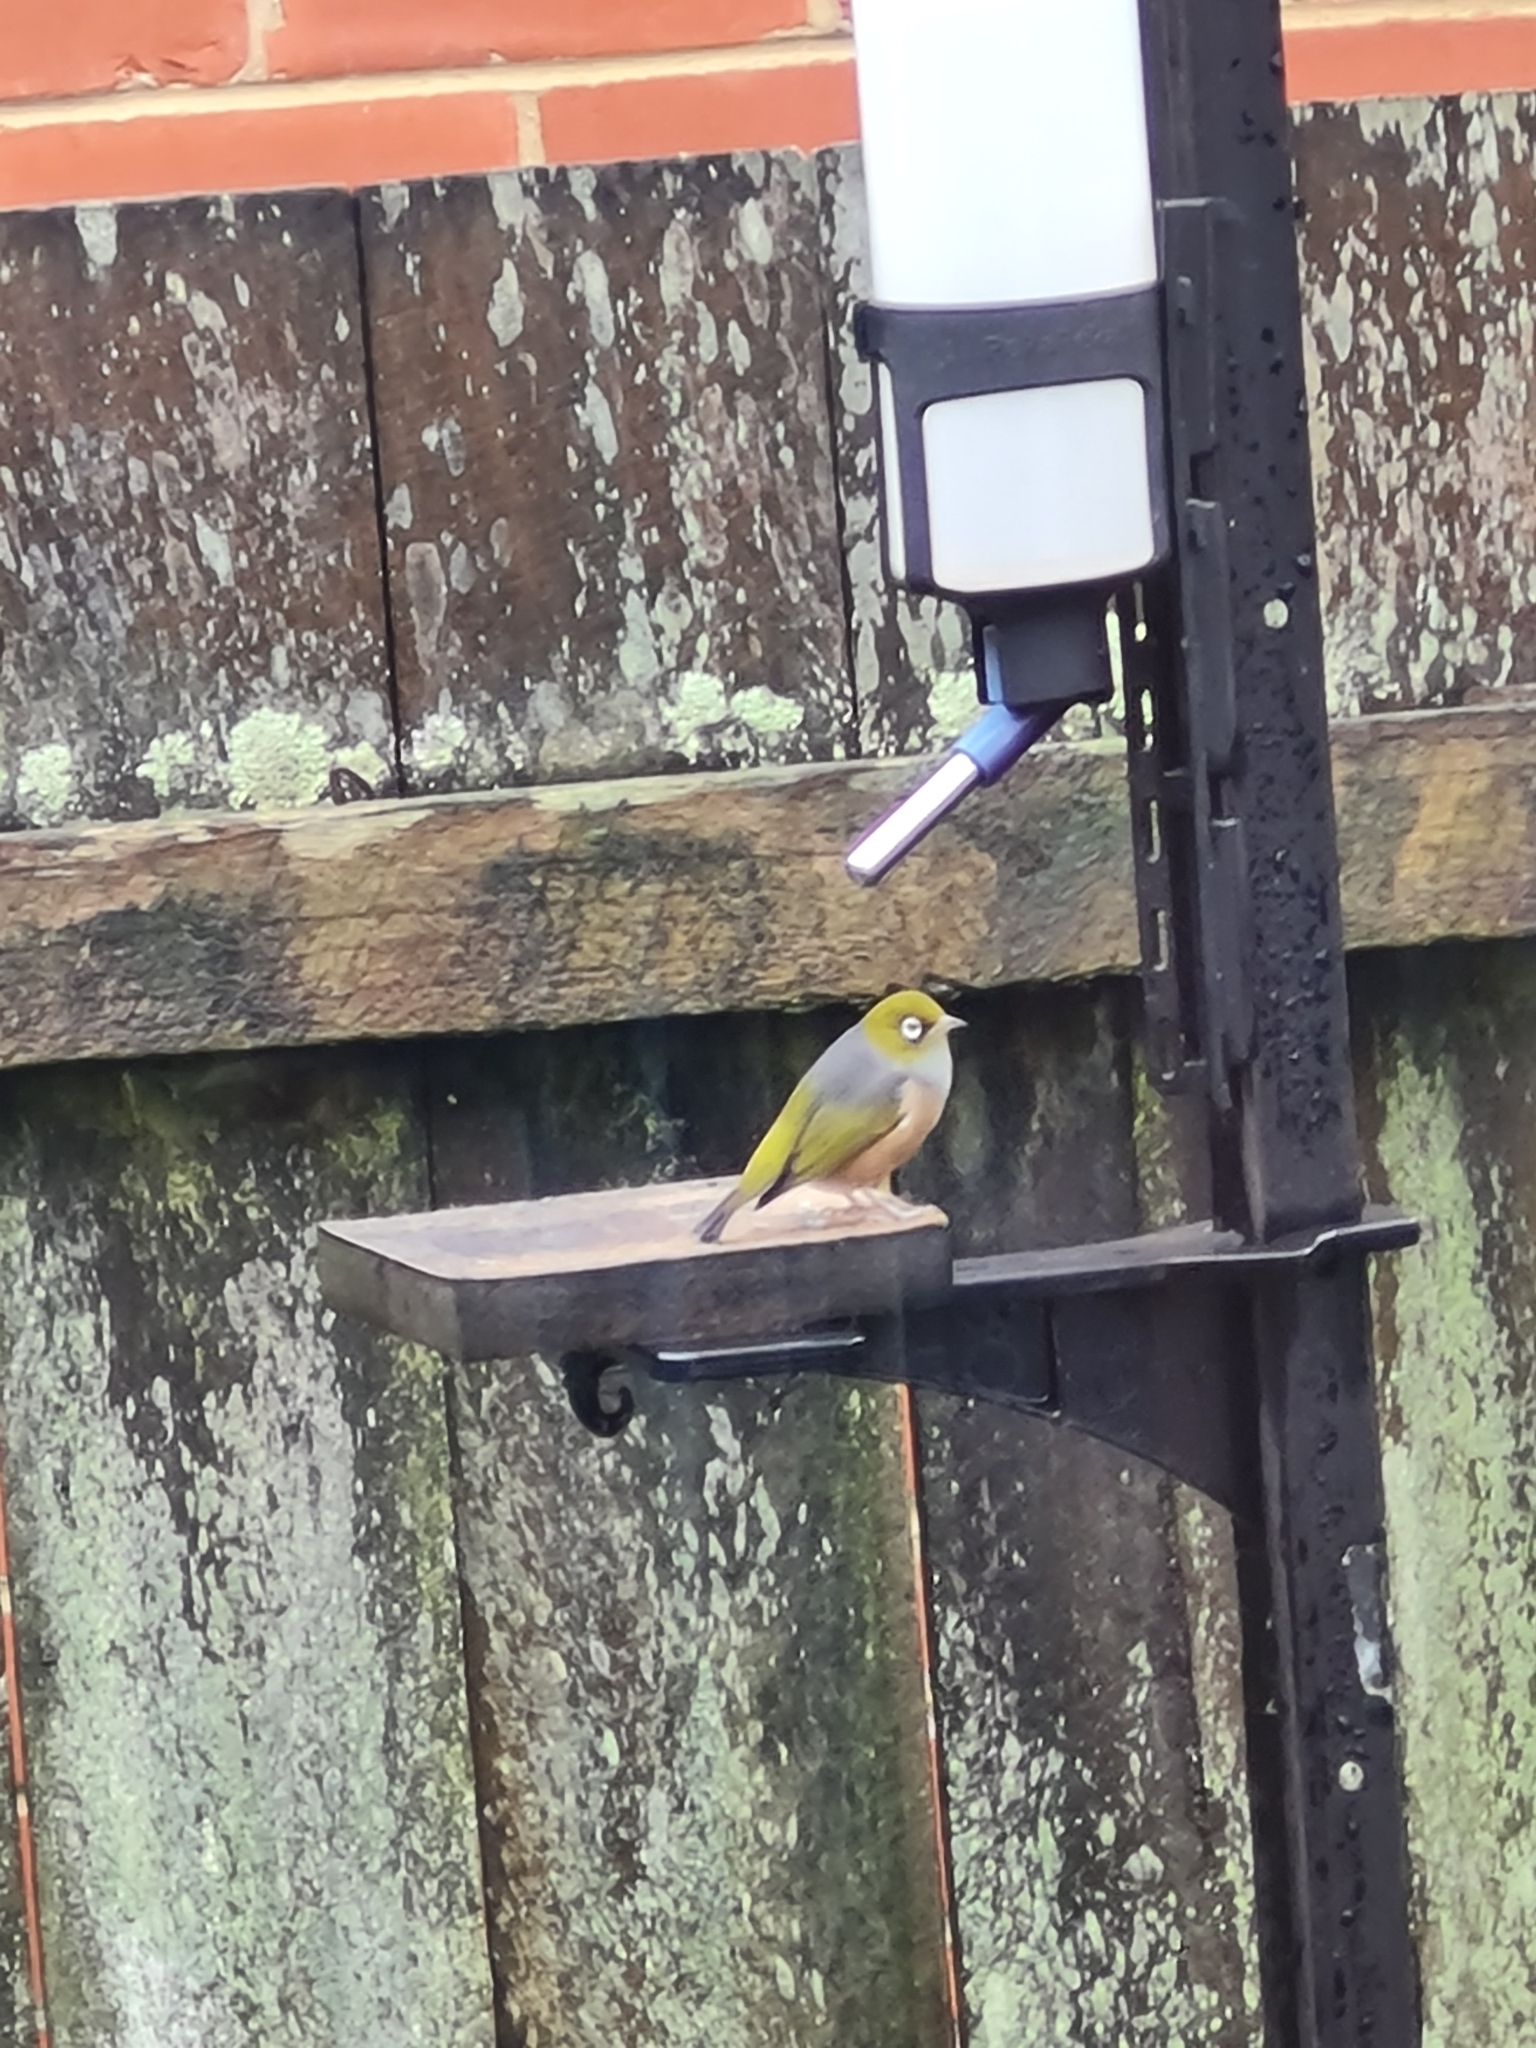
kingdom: Animalia
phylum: Chordata
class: Aves
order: Passeriformes
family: Zosteropidae
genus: Zosterops
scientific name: Zosterops lateralis
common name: Silvereye
